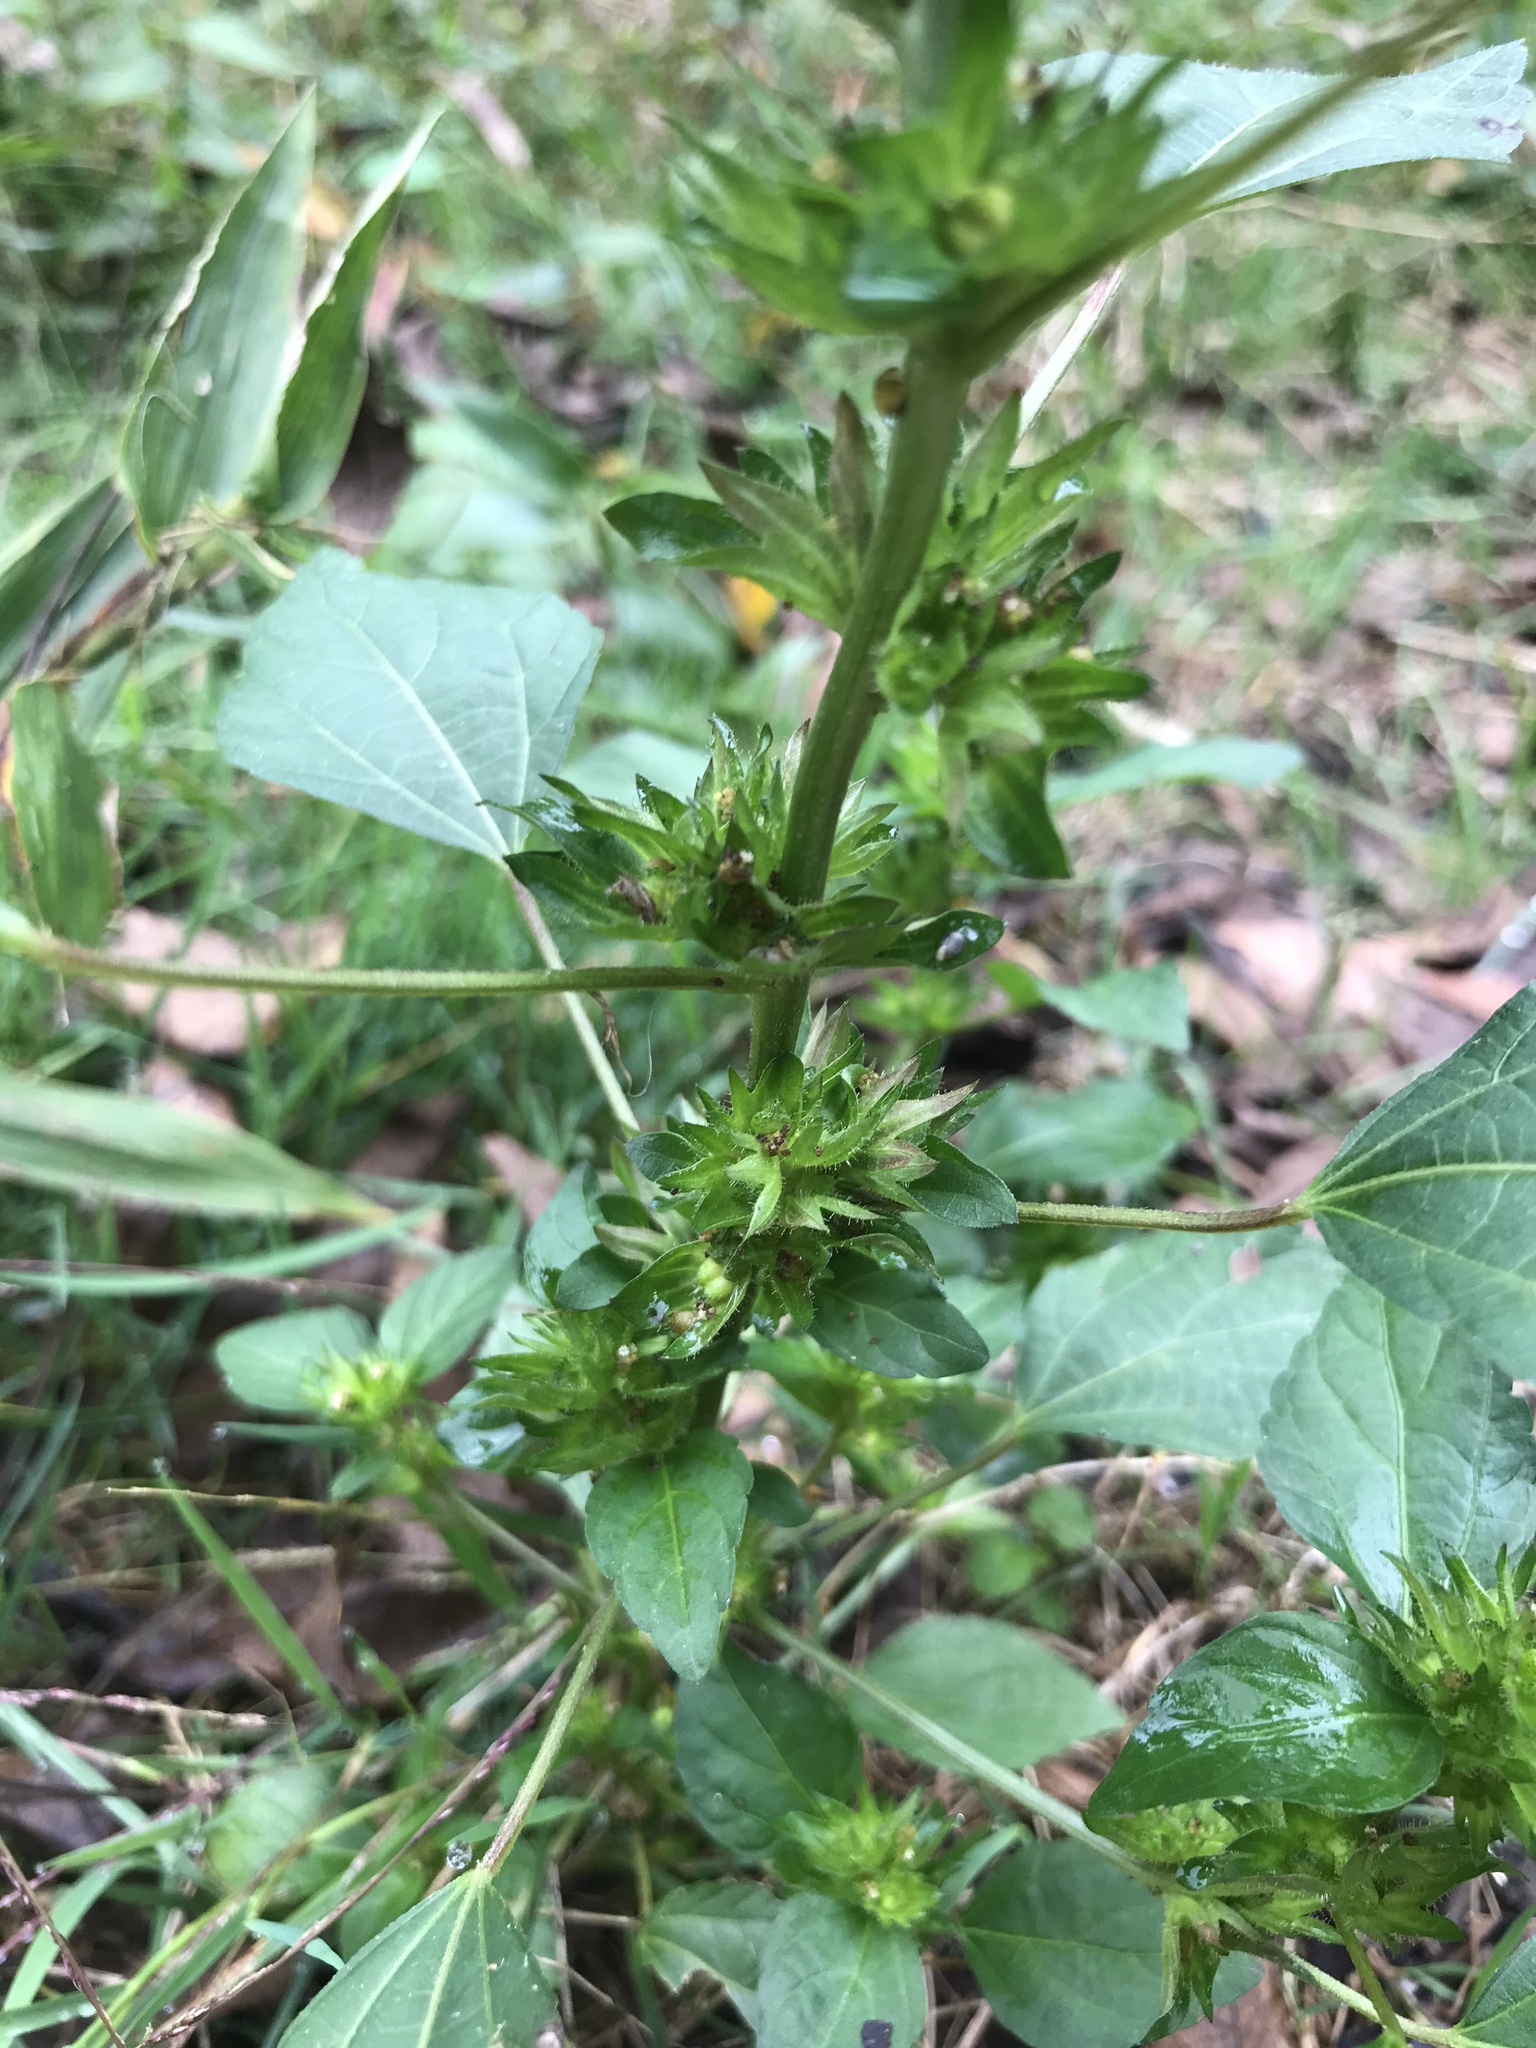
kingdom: Plantae
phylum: Tracheophyta
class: Magnoliopsida
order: Malpighiales
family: Euphorbiaceae
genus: Acalypha
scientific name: Acalypha rhomboidea
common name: Rhombic copperleaf
